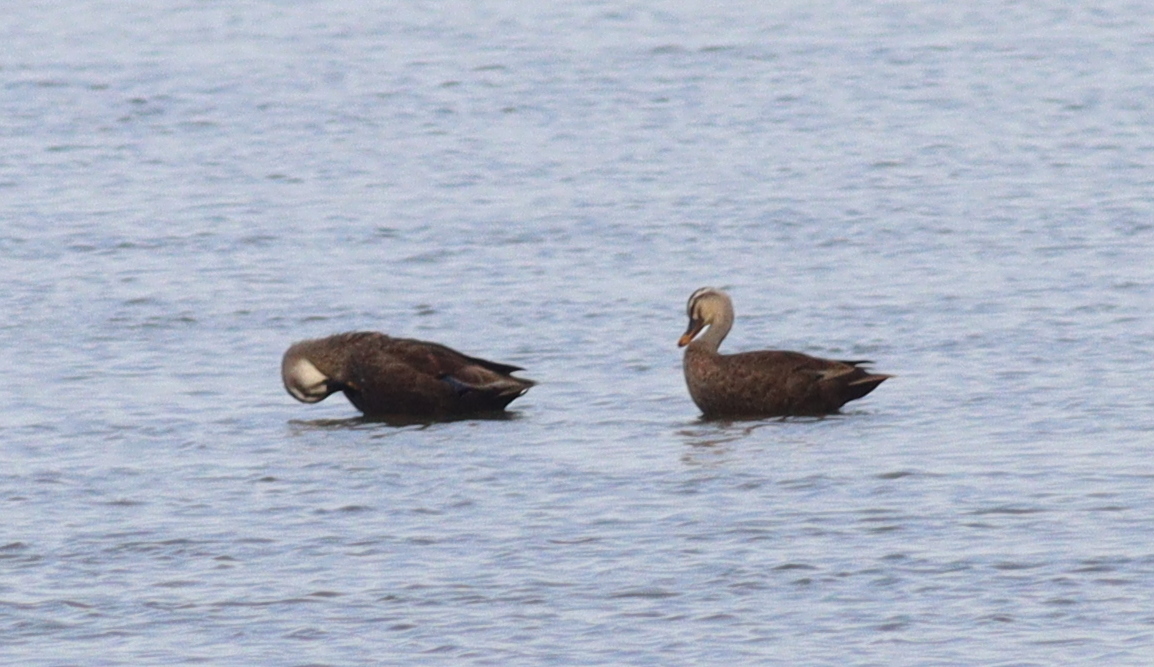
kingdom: Animalia
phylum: Chordata
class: Aves
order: Anseriformes
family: Anatidae
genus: Anas
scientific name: Anas zonorhyncha
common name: Eastern spot-billed duck
